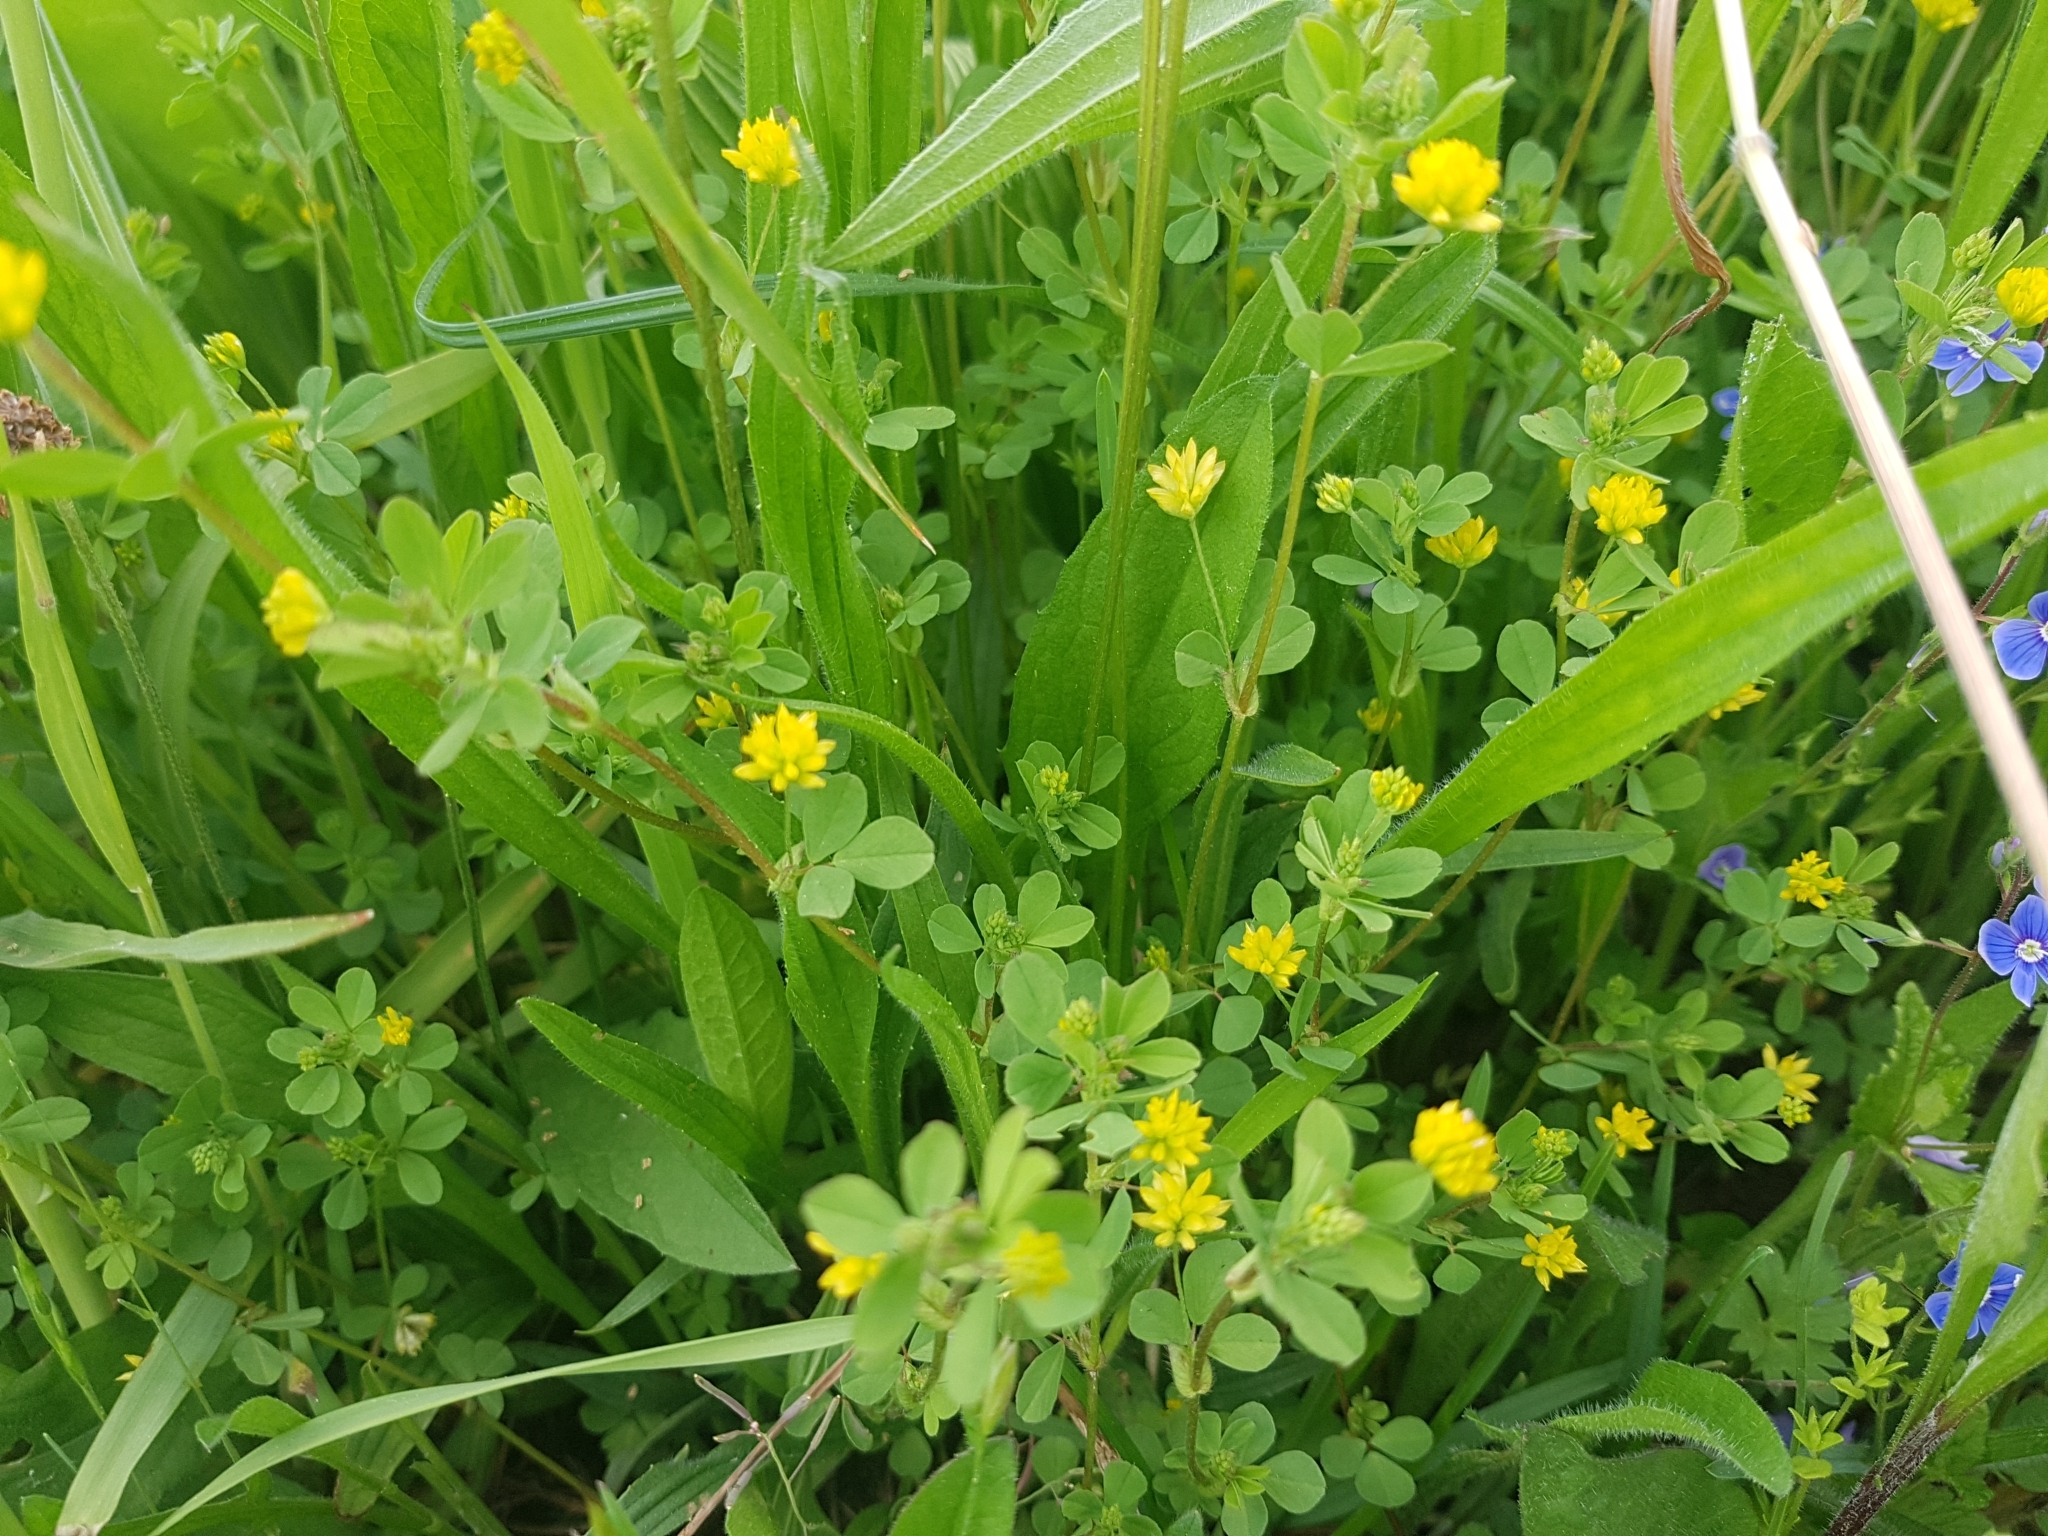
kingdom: Plantae
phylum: Tracheophyta
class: Magnoliopsida
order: Fabales
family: Fabaceae
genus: Trifolium
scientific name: Trifolium dubium
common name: Suckling clover
